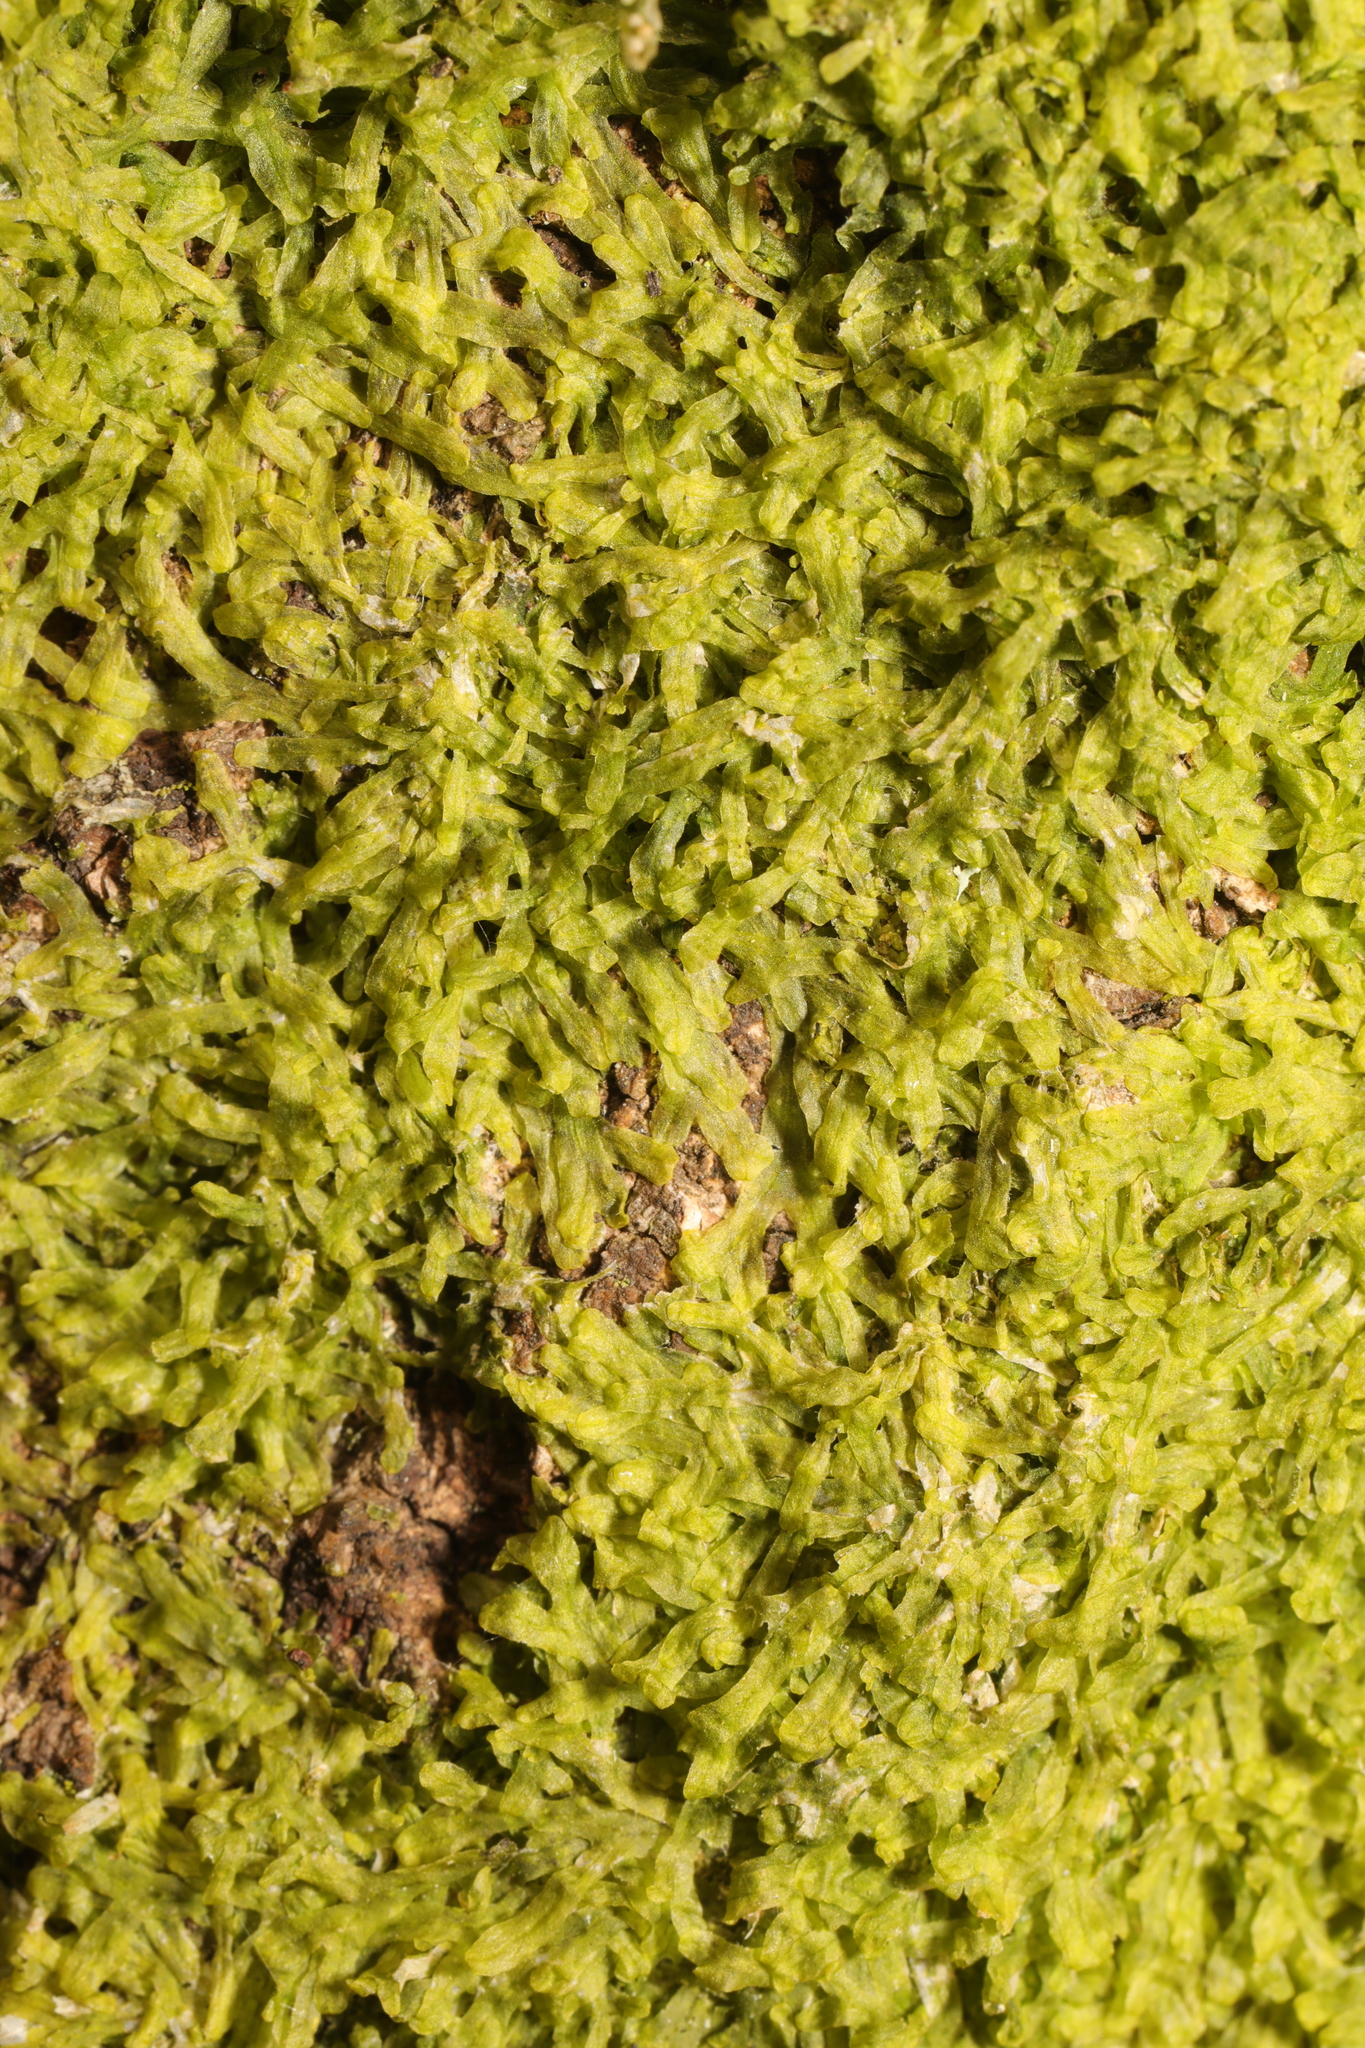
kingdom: Plantae
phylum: Marchantiophyta
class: Jungermanniopsida
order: Metzgeriales
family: Metzgeriaceae
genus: Metzgeria
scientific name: Metzgeria furcata
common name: Forked veilwort
